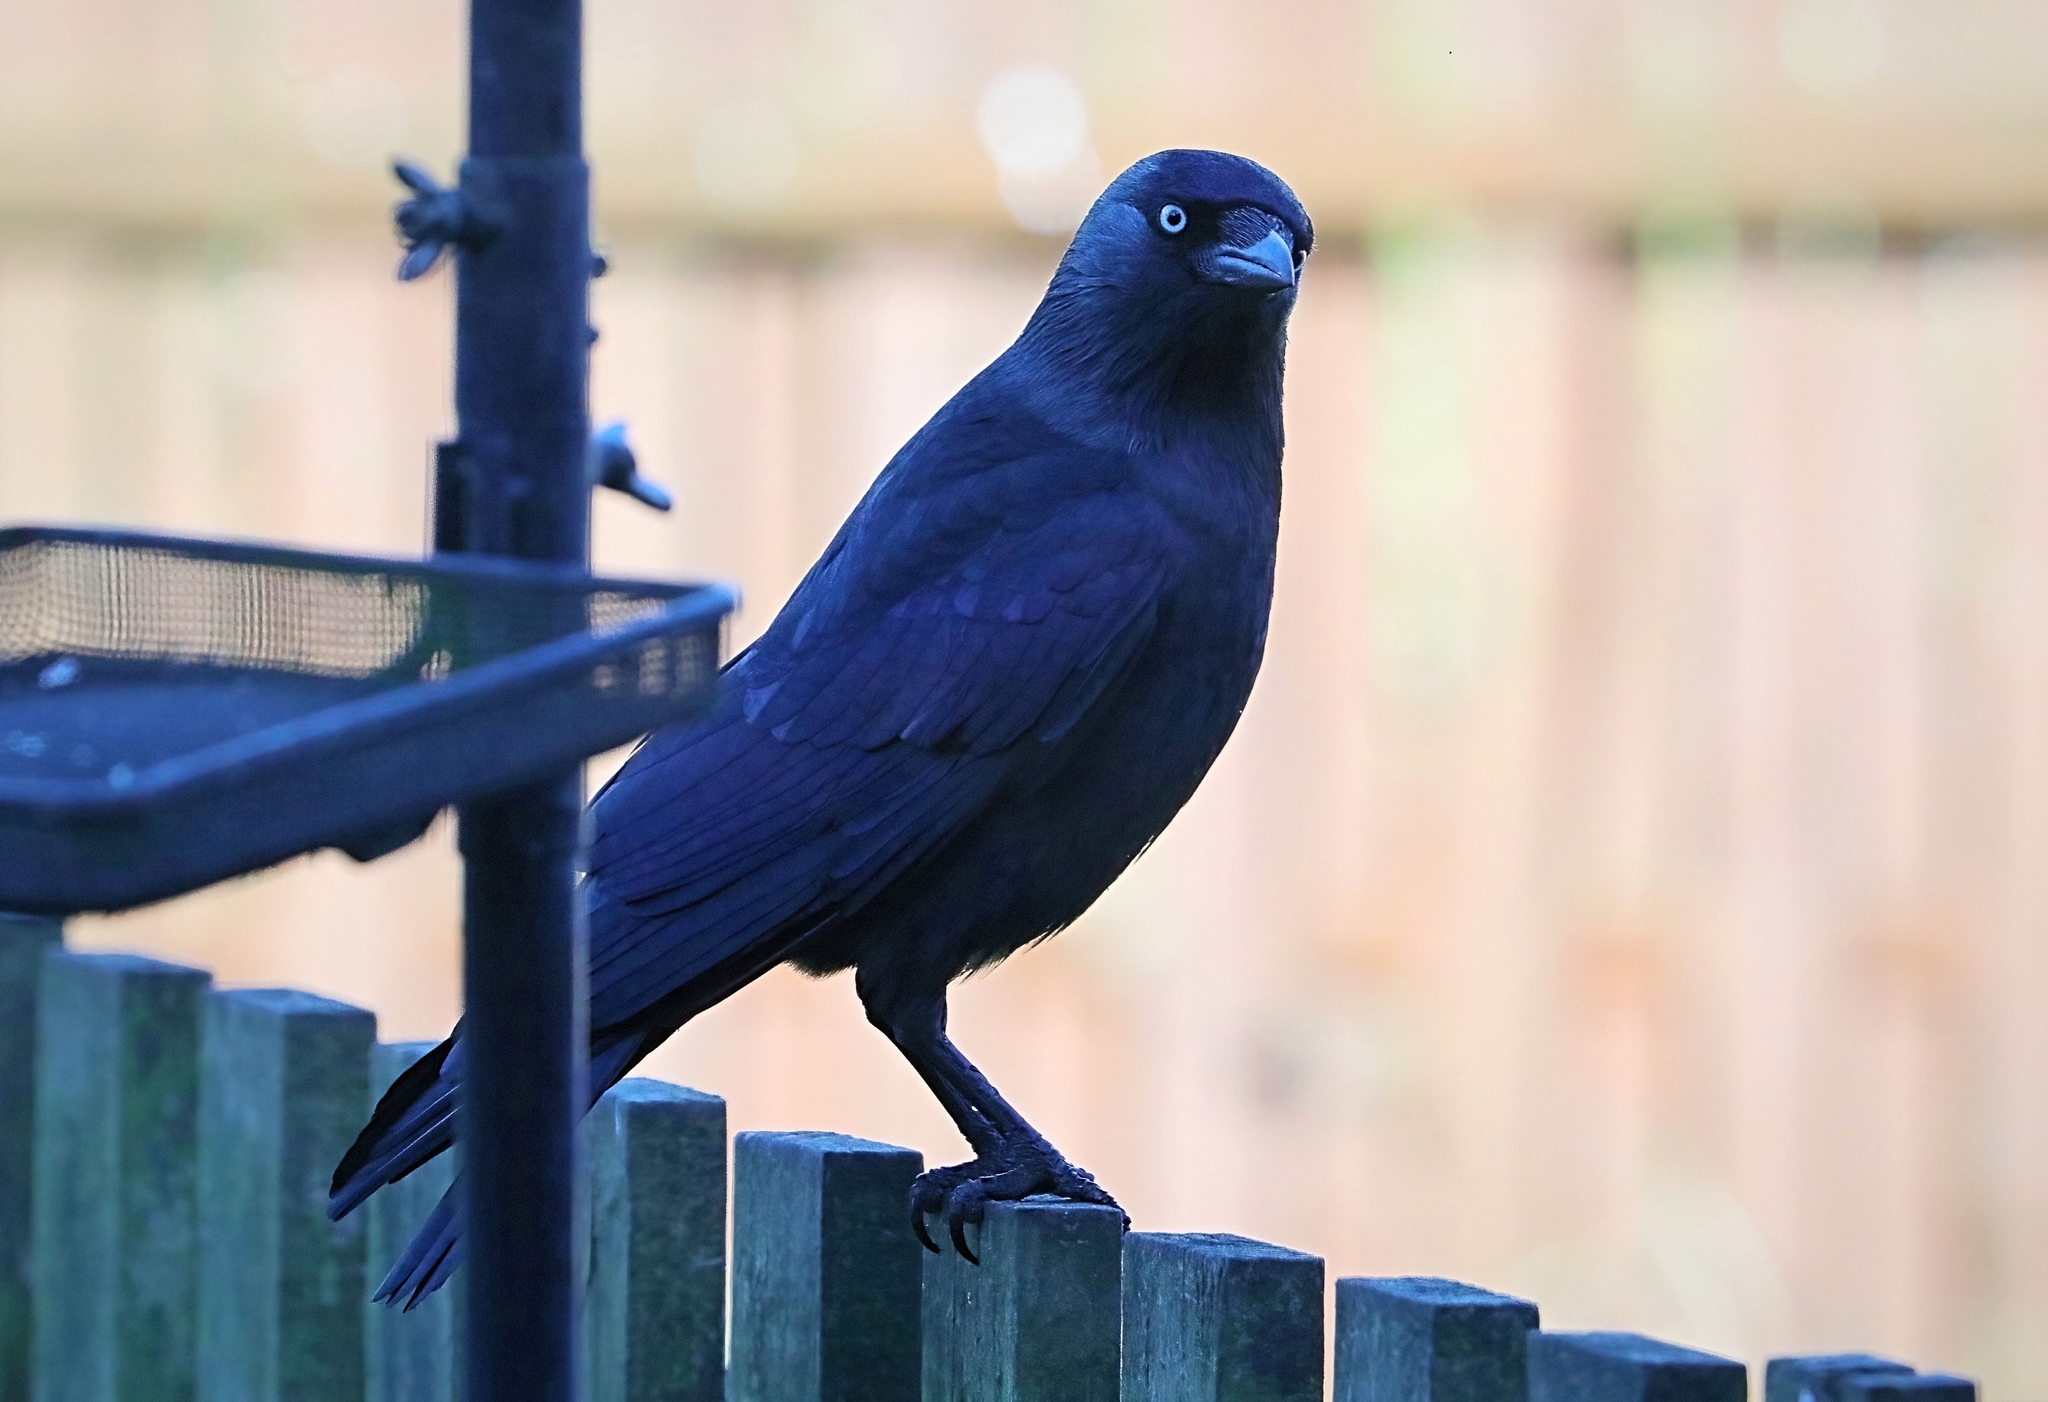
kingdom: Animalia
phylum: Chordata
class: Aves
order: Passeriformes
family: Corvidae
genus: Coloeus
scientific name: Coloeus monedula
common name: Western jackdaw
